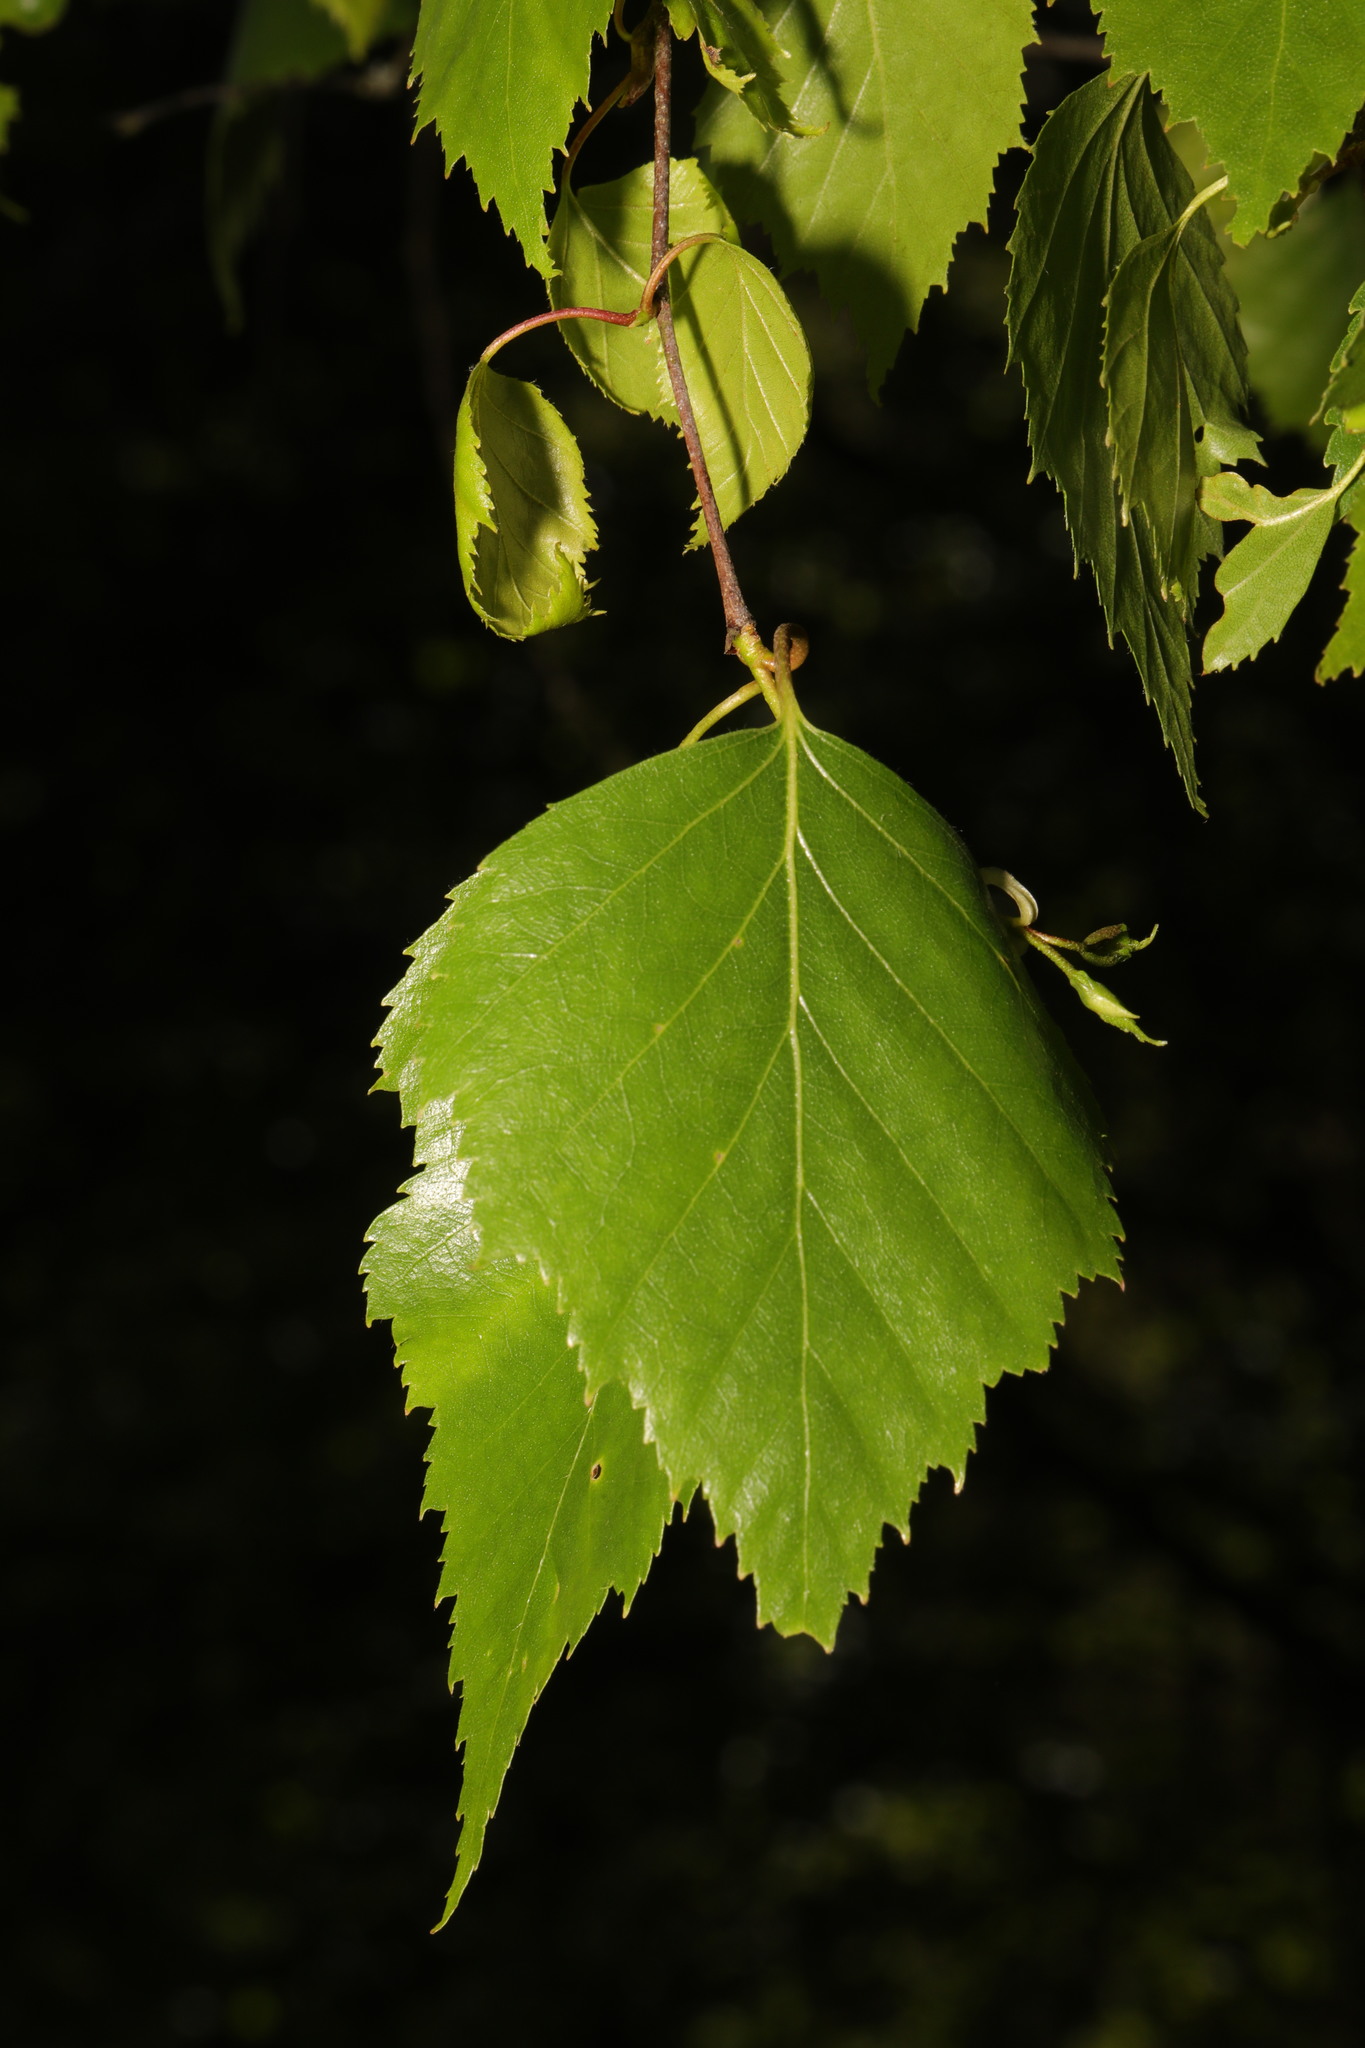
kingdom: Plantae
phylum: Tracheophyta
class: Magnoliopsida
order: Fagales
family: Betulaceae
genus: Betula
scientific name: Betula pendula
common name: Silver birch
